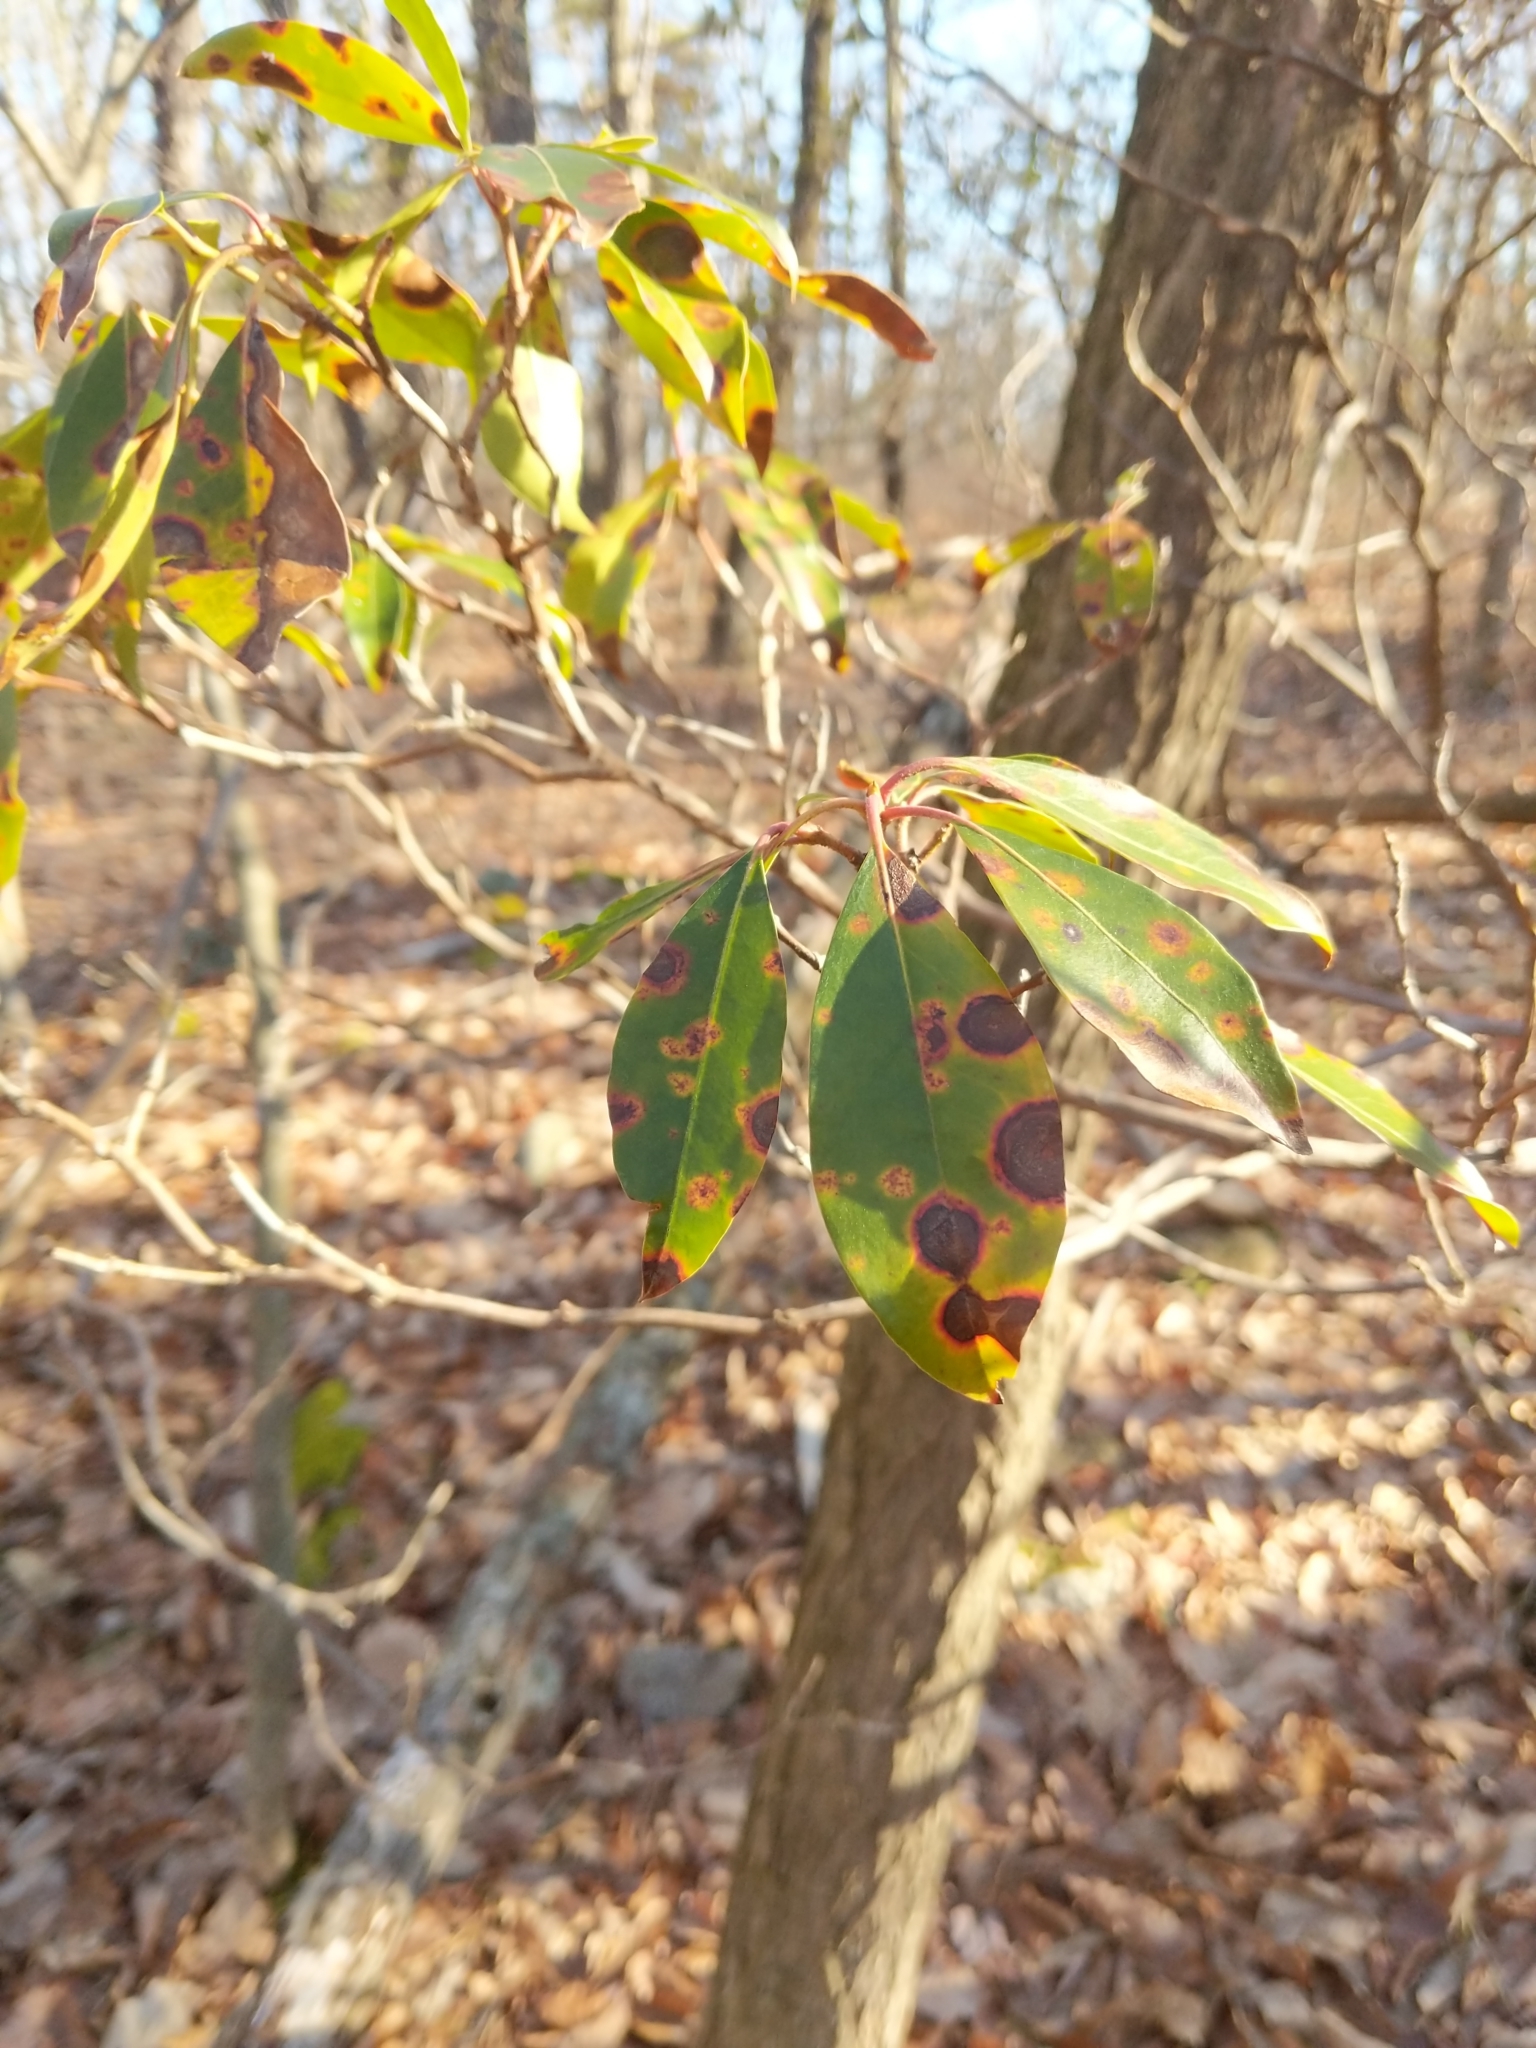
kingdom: Plantae
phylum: Tracheophyta
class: Magnoliopsida
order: Ericales
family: Ericaceae
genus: Kalmia
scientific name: Kalmia latifolia
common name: Mountain-laurel
